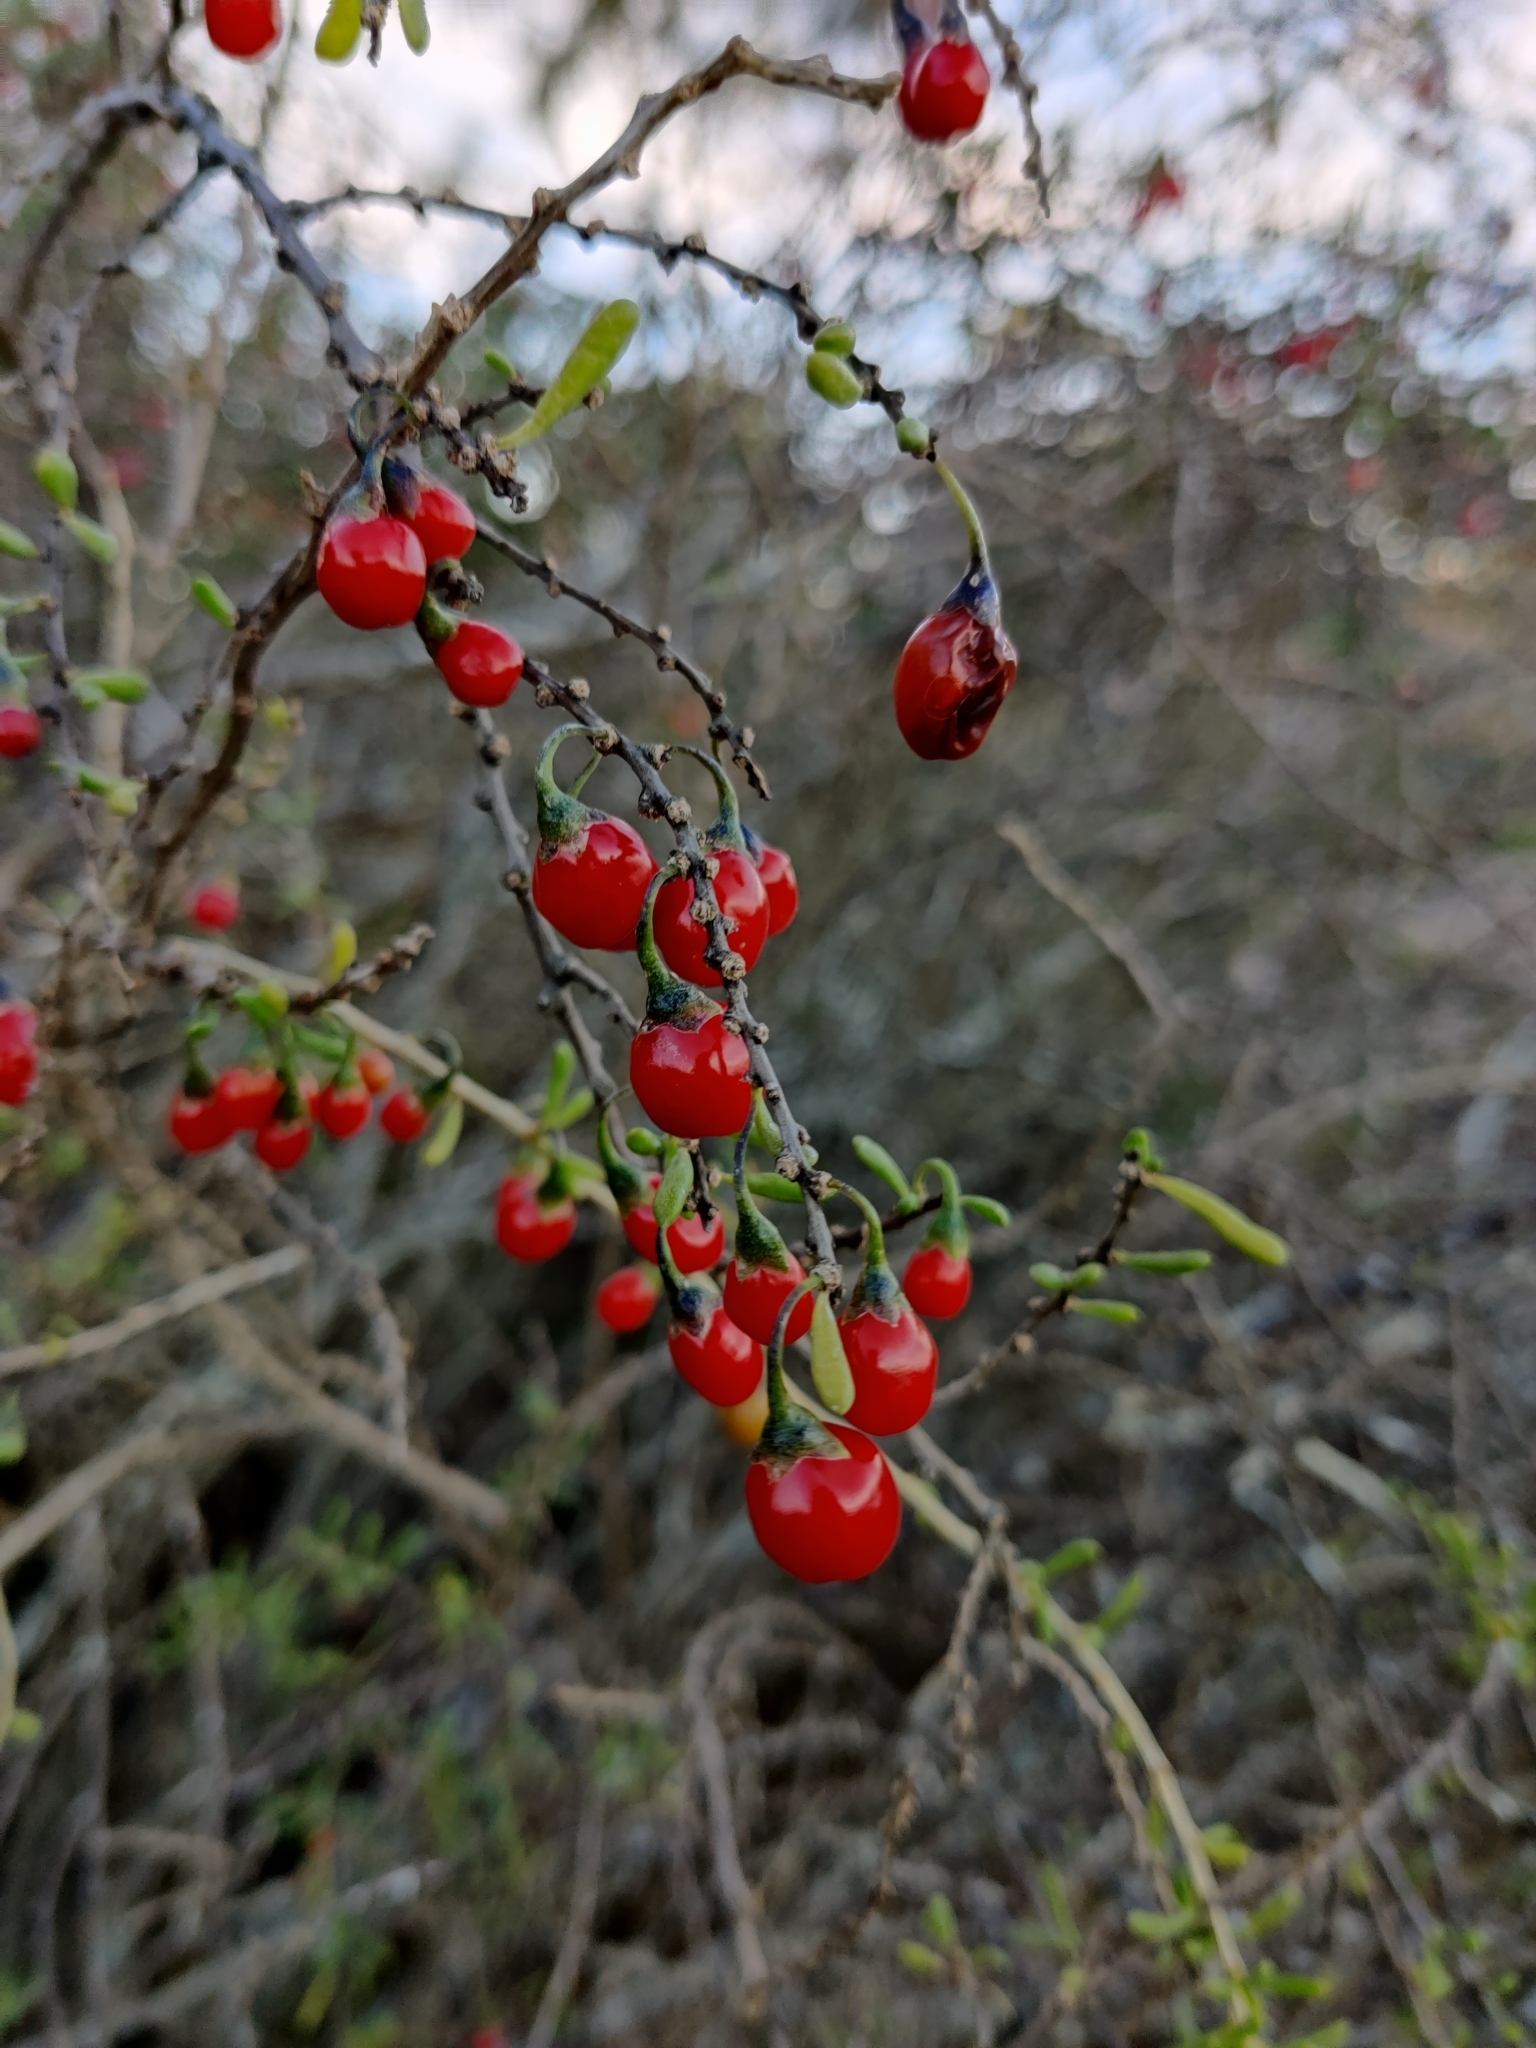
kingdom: Plantae
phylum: Tracheophyta
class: Magnoliopsida
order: Solanales
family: Solanaceae
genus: Lycium
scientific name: Lycium carolinianum
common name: Christmasberry
